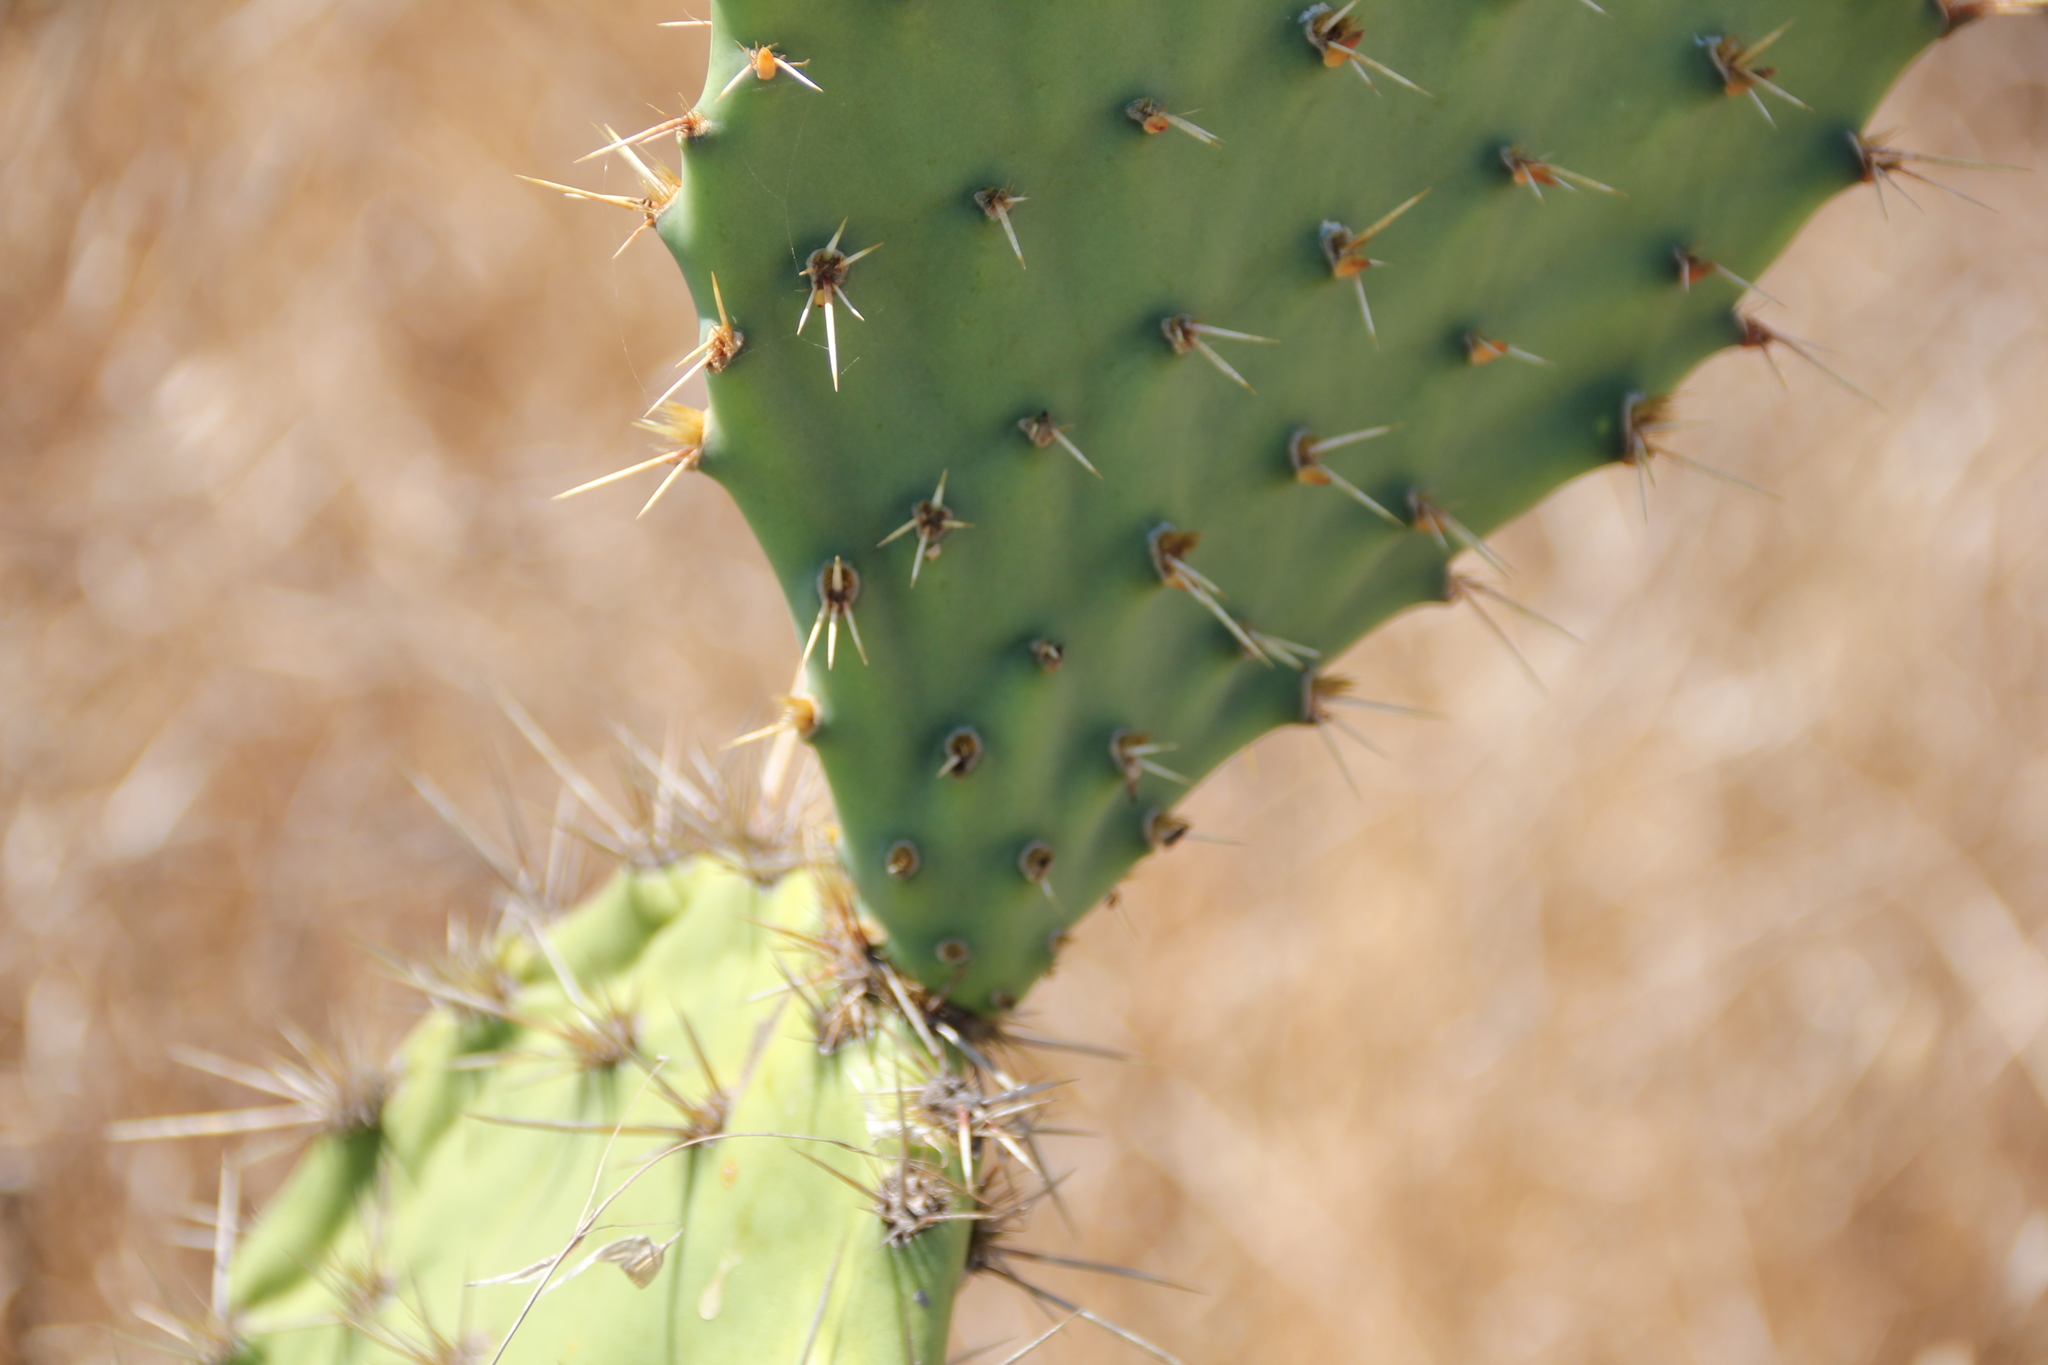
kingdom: Plantae
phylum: Tracheophyta
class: Magnoliopsida
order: Caryophyllales
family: Cactaceae
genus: Opuntia
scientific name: Opuntia littoralis
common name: Coastal prickly-pear
